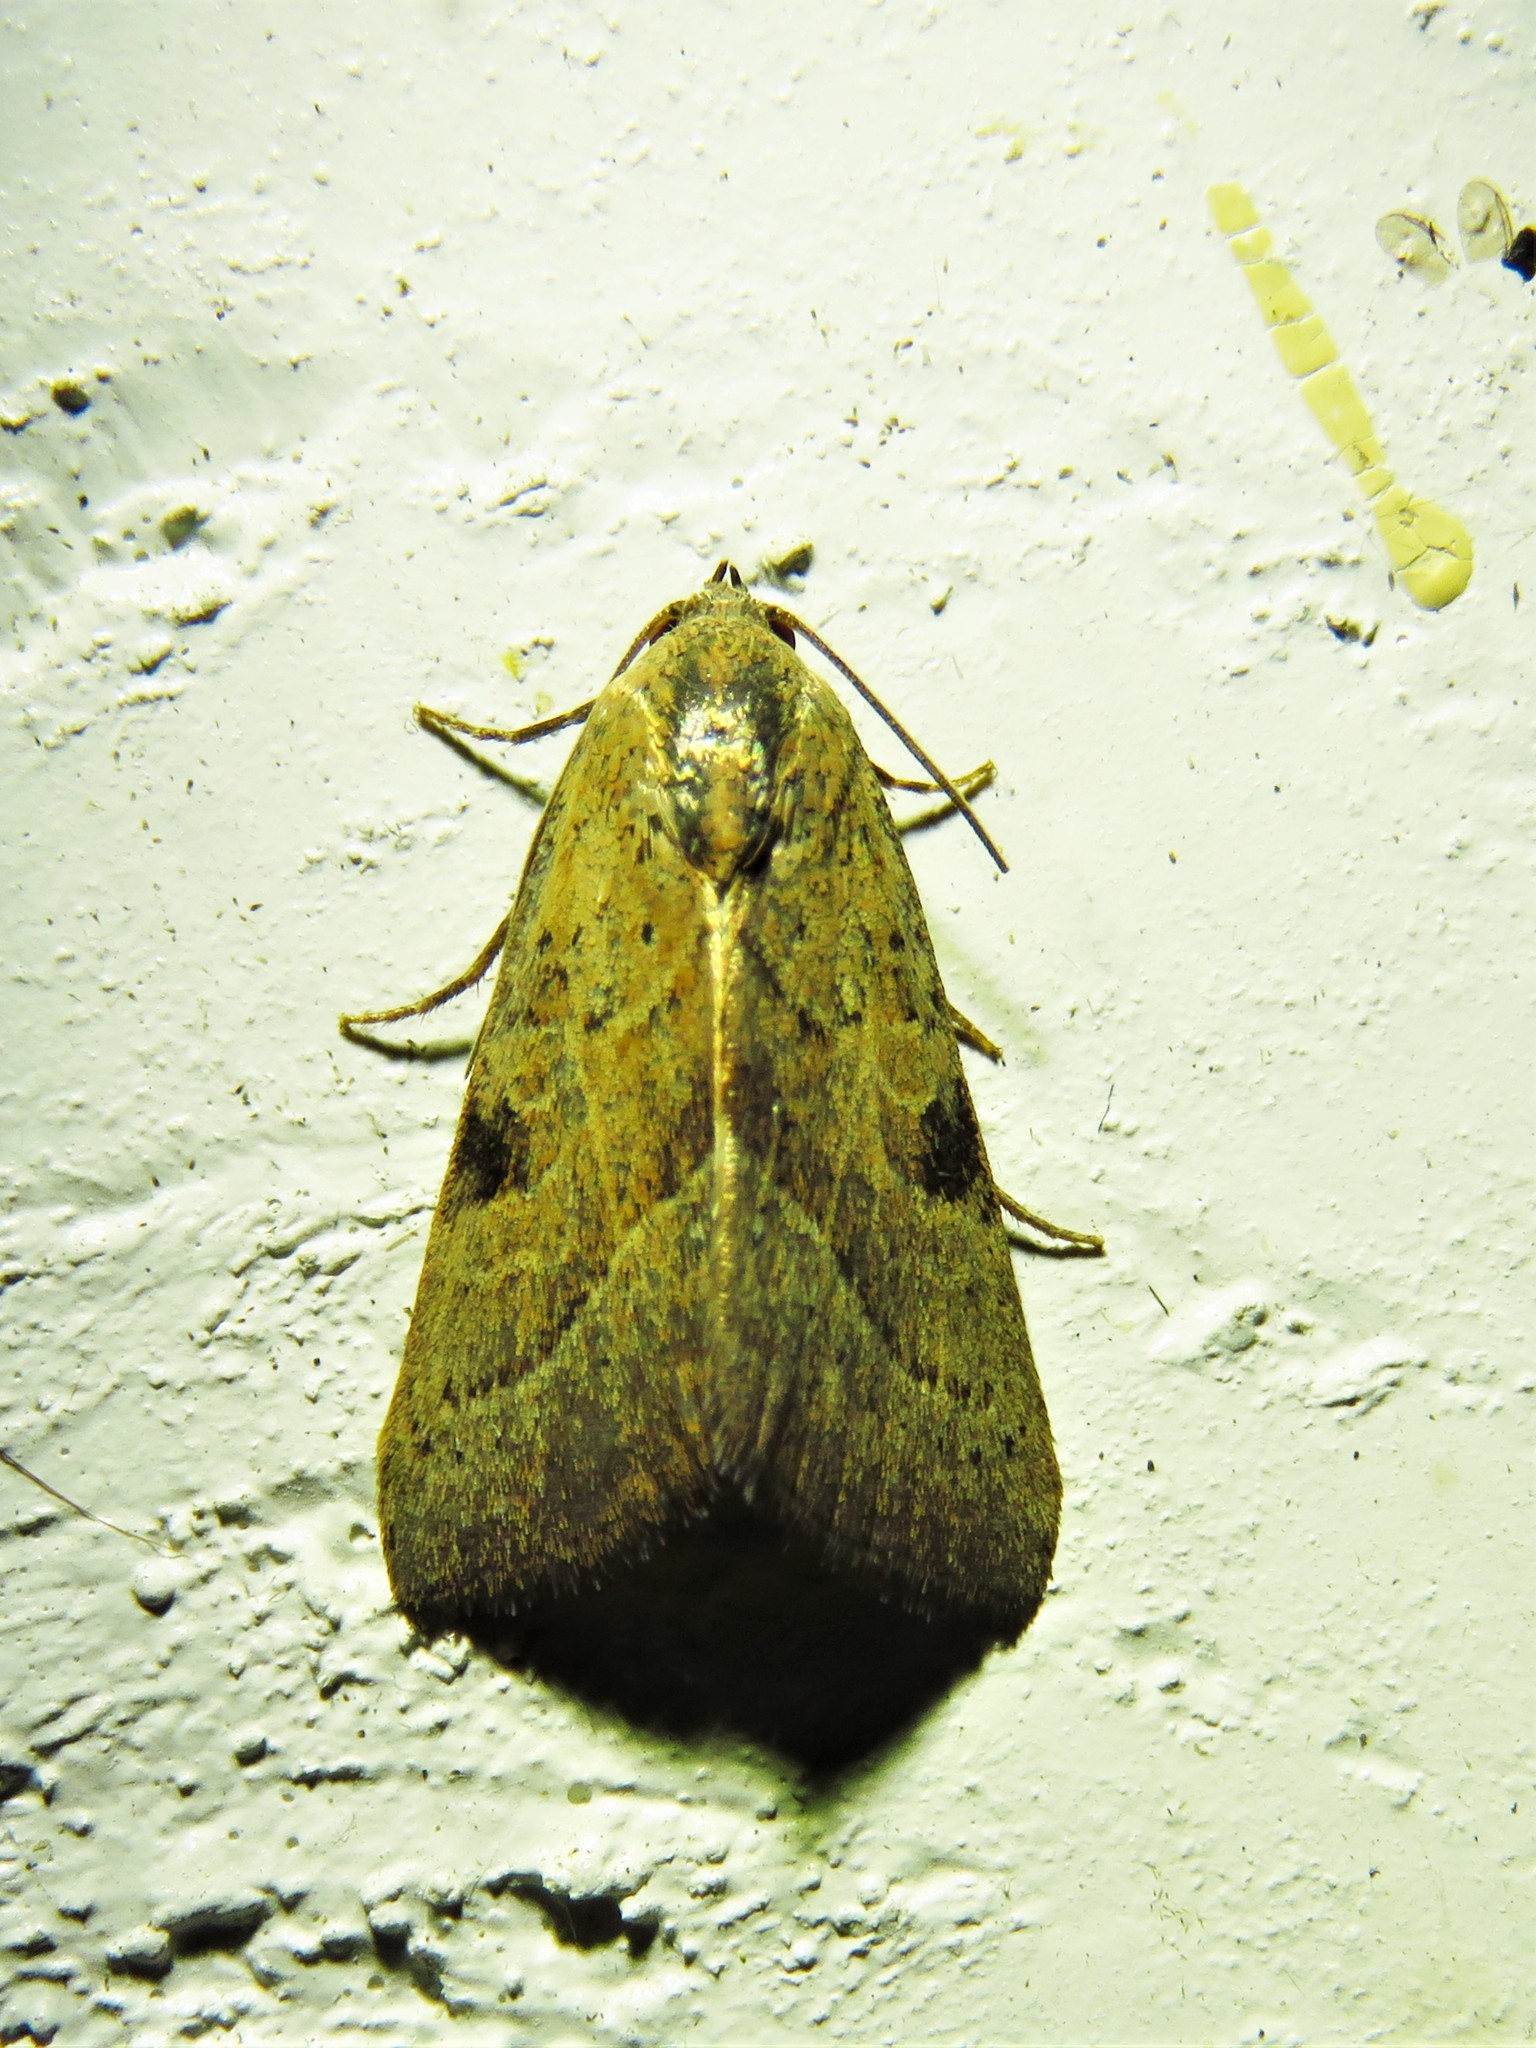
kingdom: Animalia
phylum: Arthropoda
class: Insecta
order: Lepidoptera
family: Noctuidae
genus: Galgula
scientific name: Galgula partita
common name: Wedgeling
